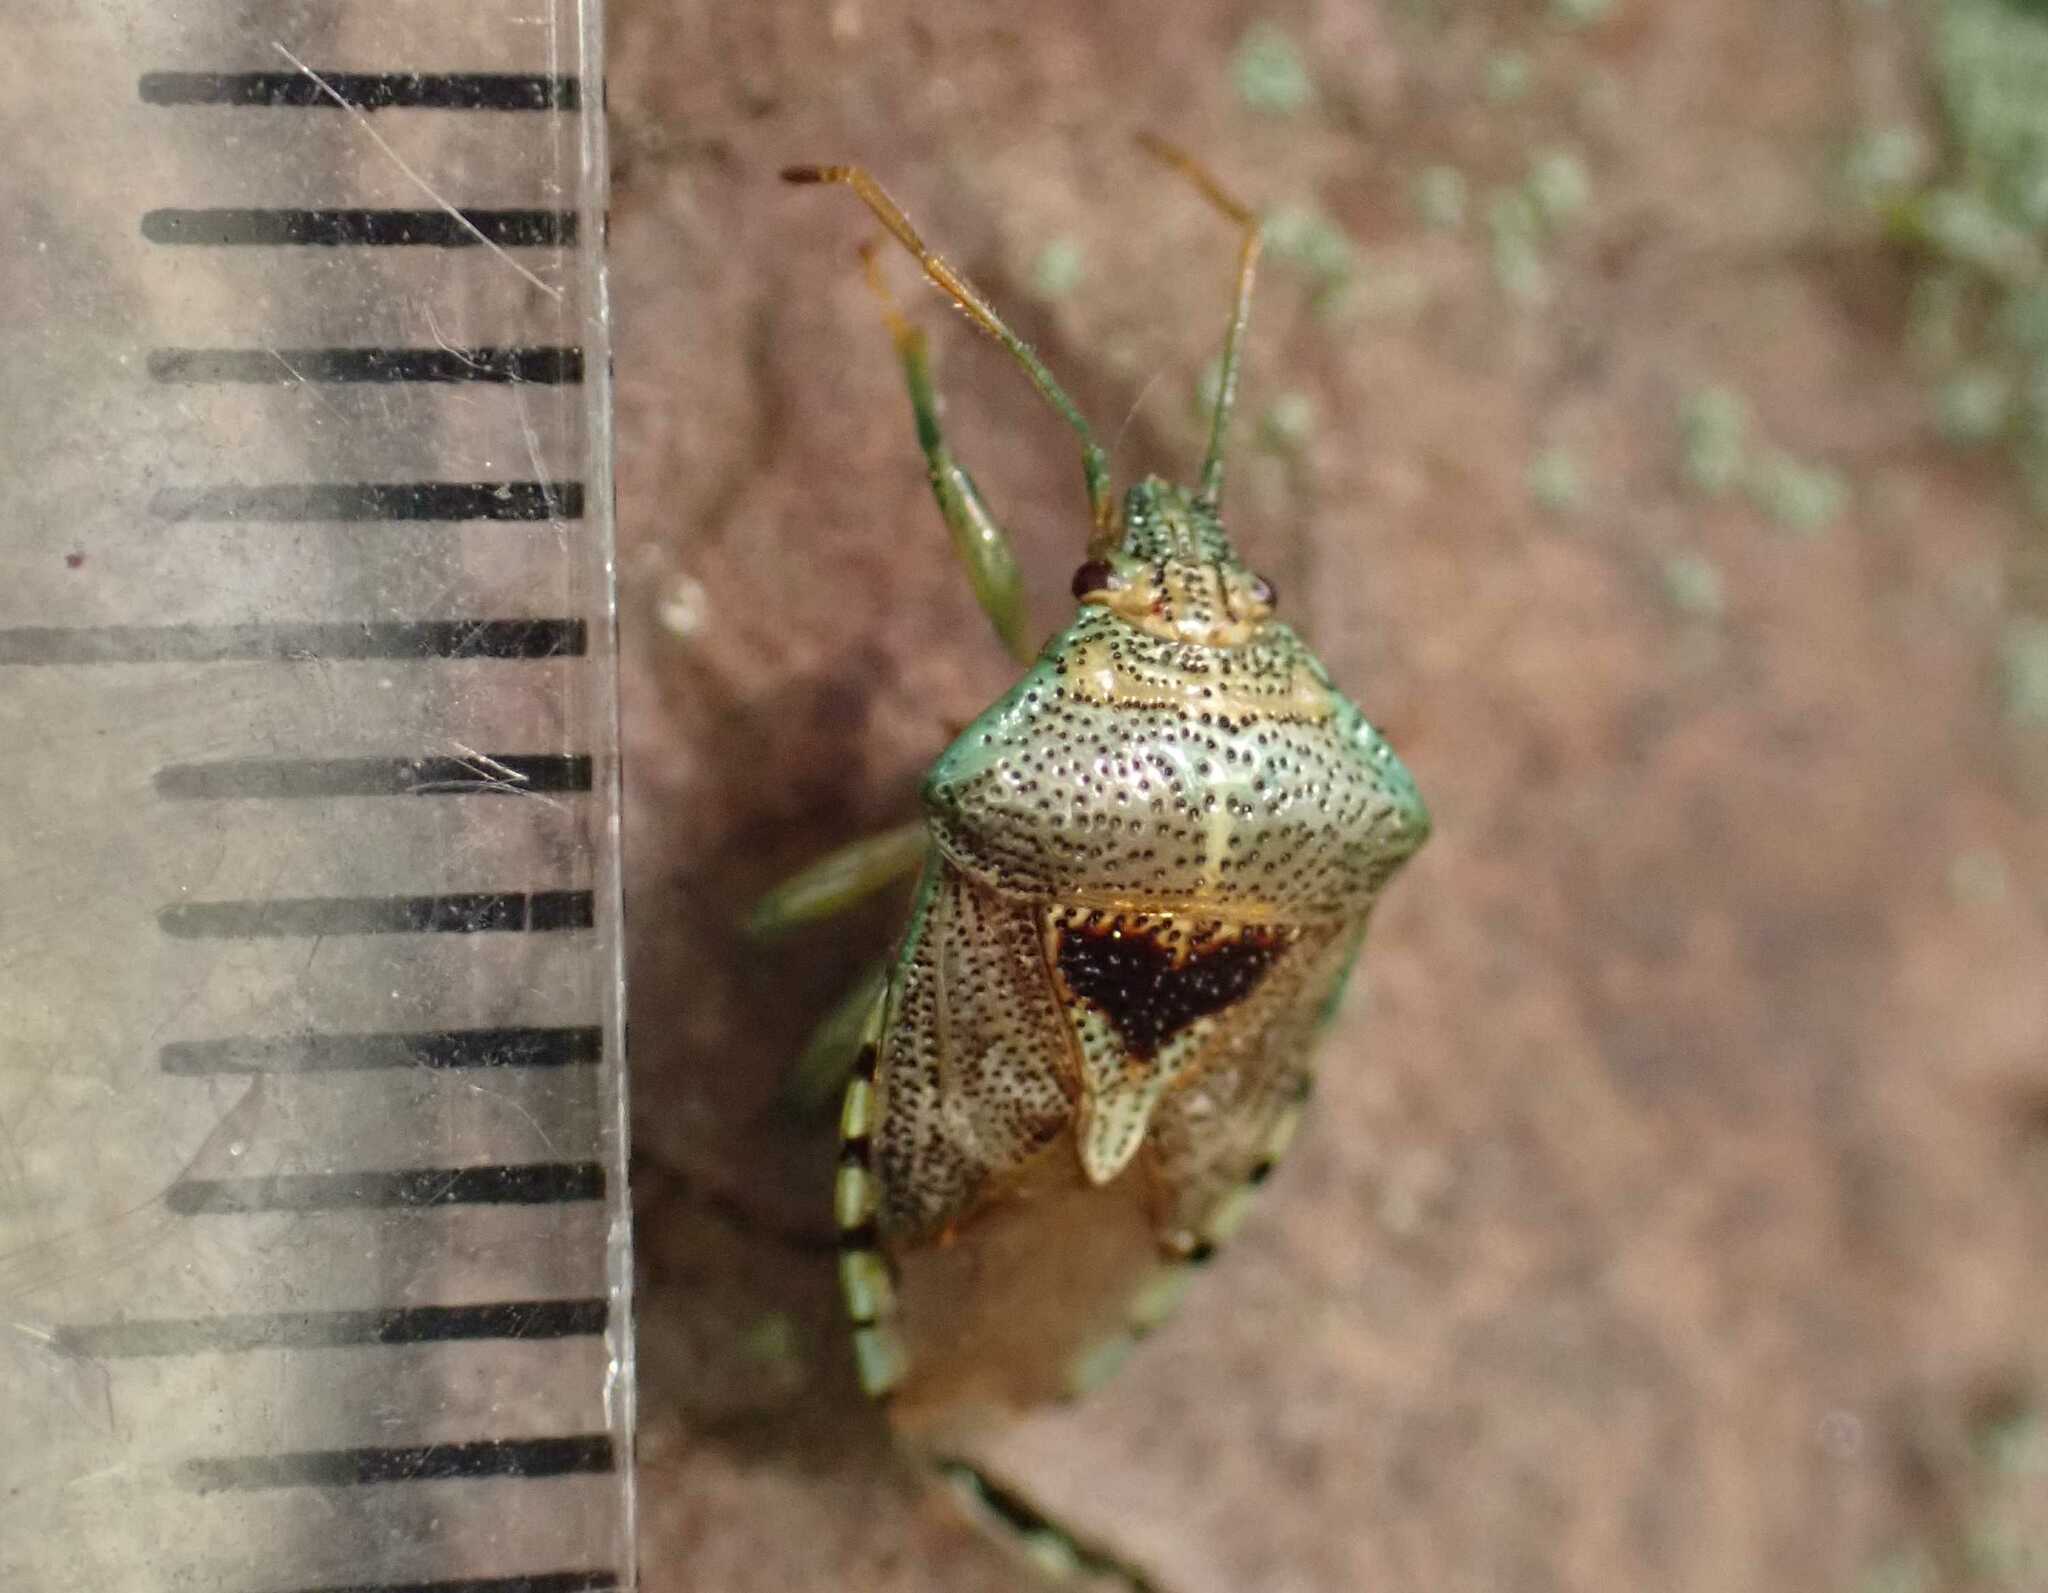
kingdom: Animalia
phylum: Arthropoda
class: Insecta
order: Hemiptera
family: Acanthosomatidae
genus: Elasmucha
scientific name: Elasmucha grisea
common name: Parent bug
